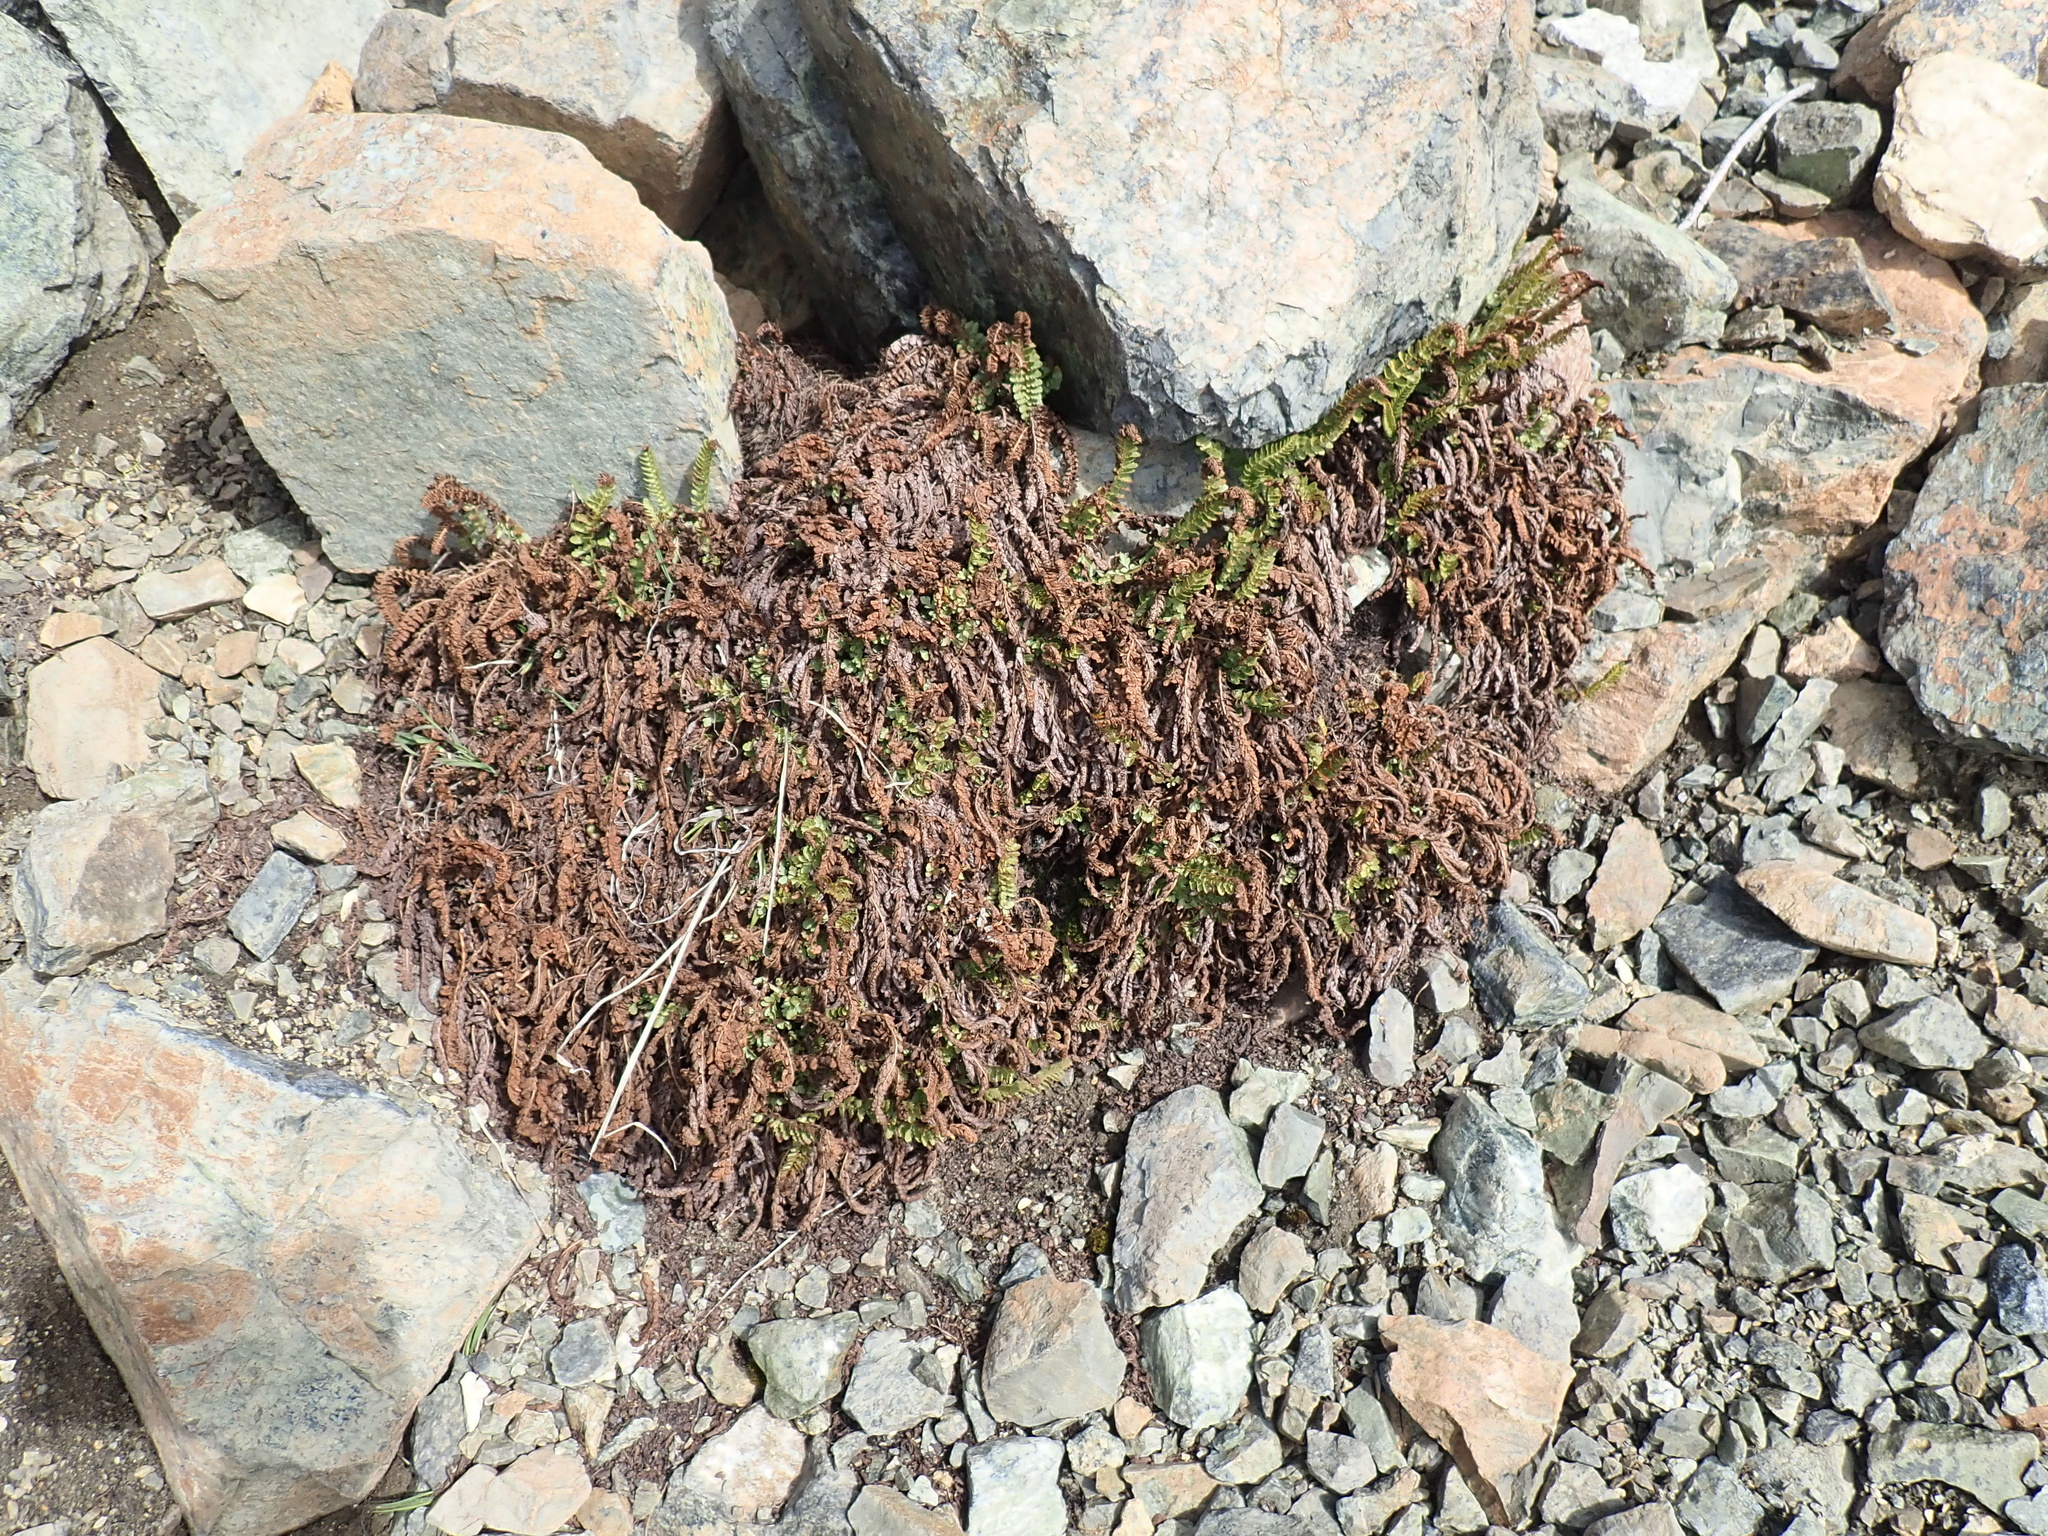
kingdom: Plantae
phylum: Tracheophyta
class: Polypodiopsida
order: Polypodiales
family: Dryopteridaceae
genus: Polystichum
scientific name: Polystichum lemmonii
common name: Lemmon's holly fern
